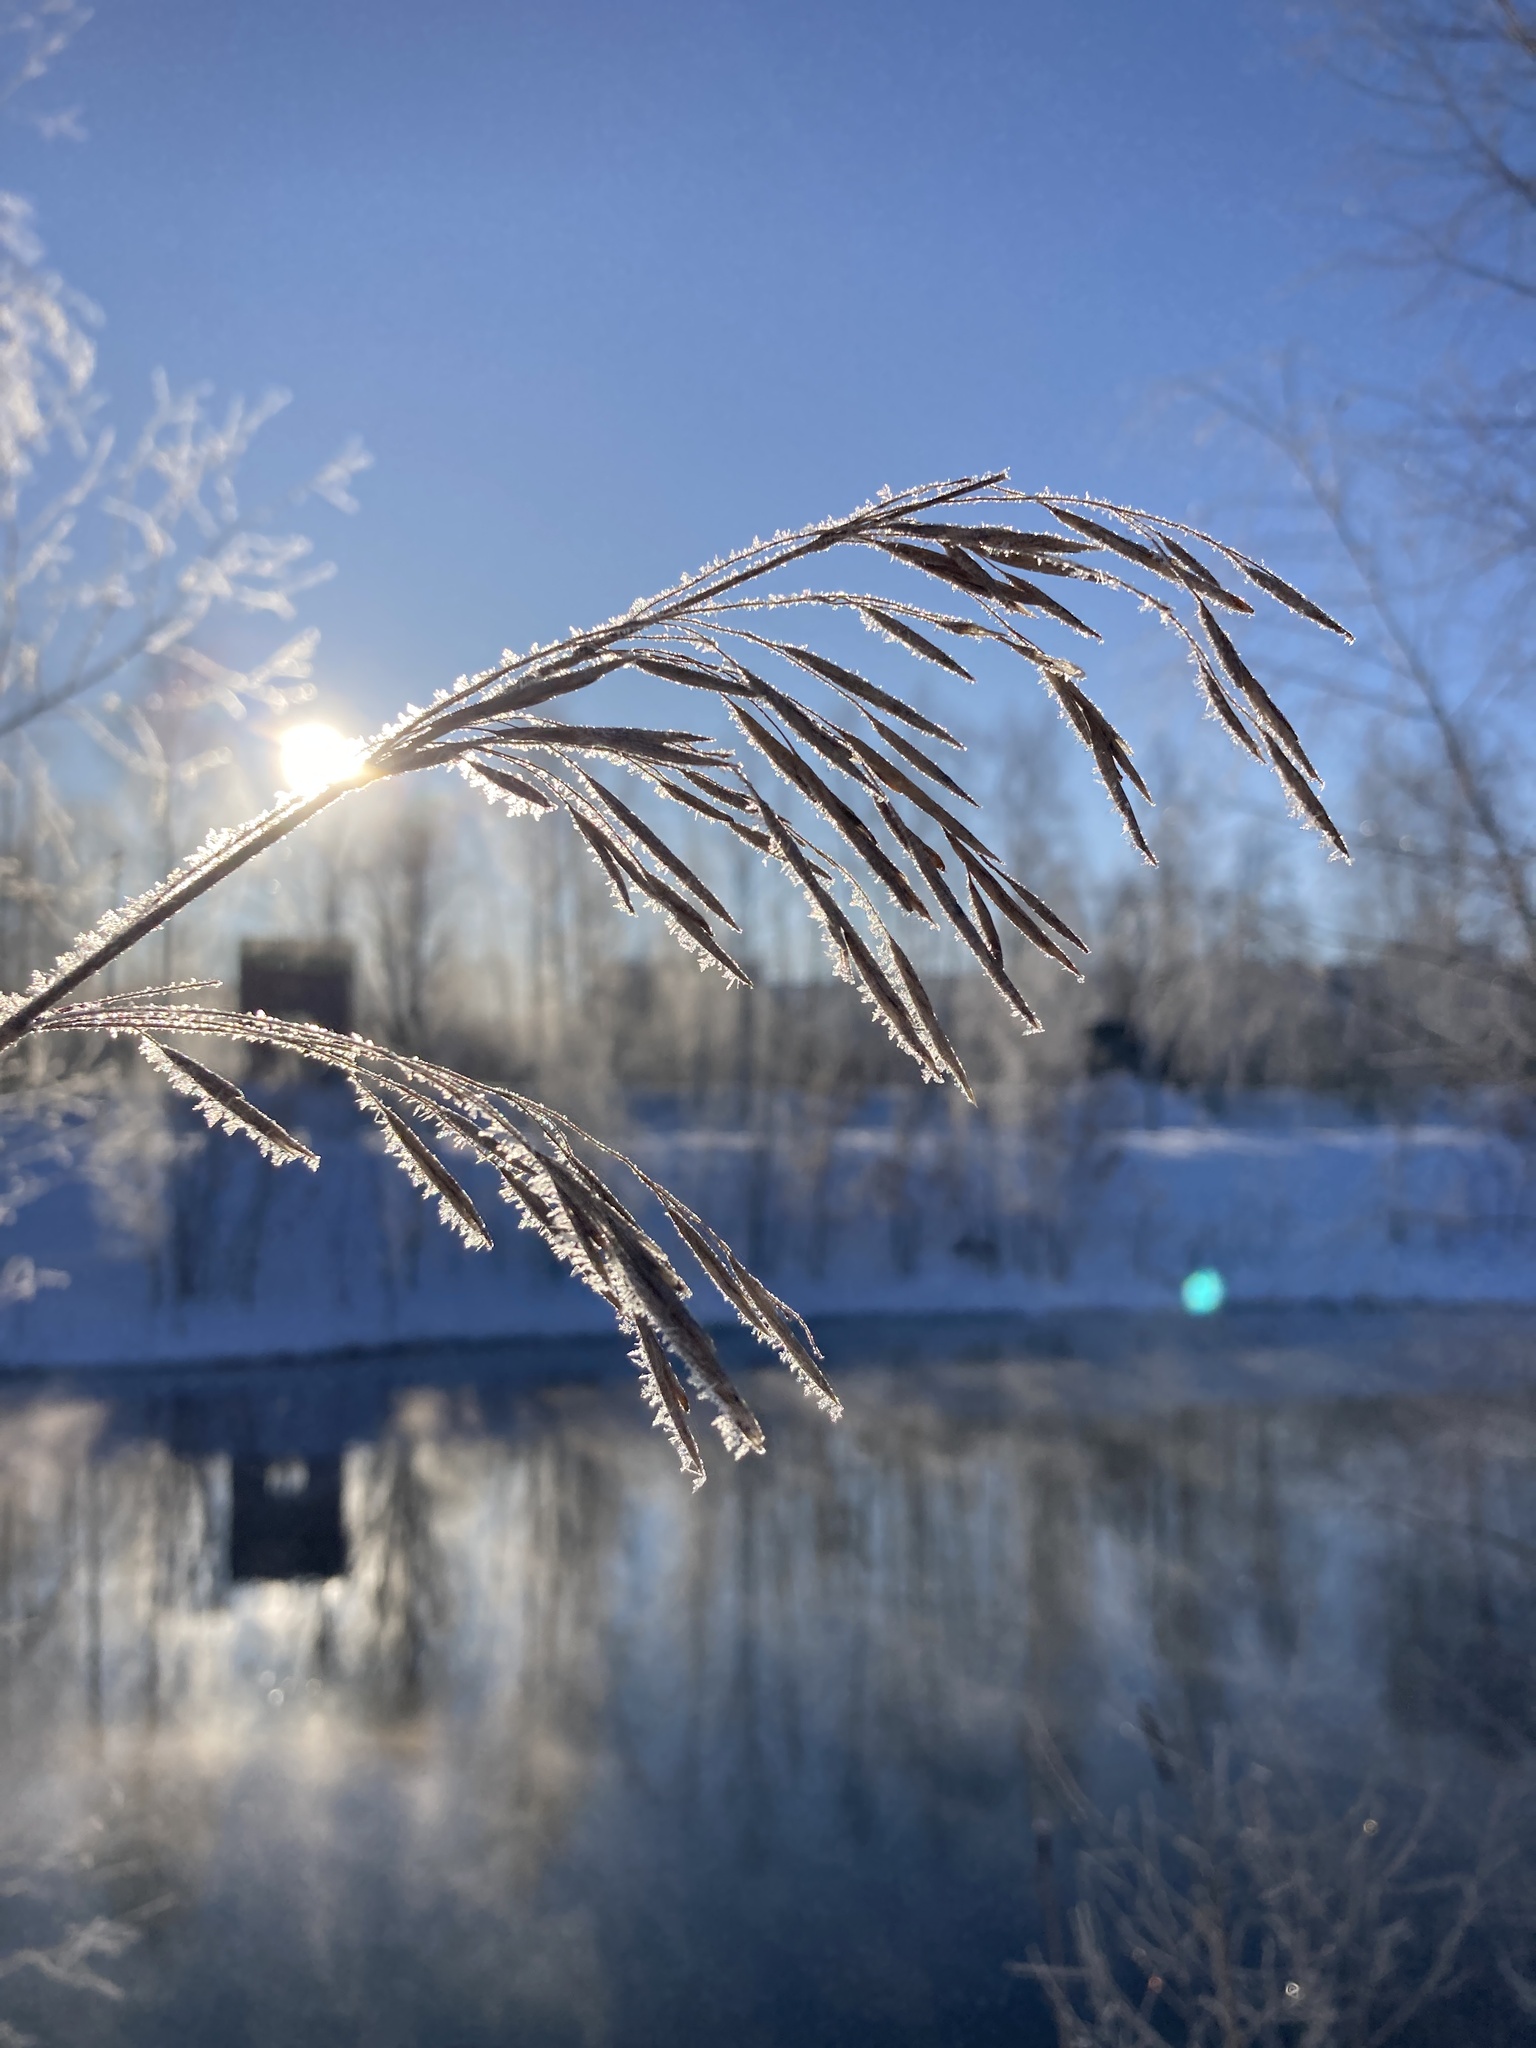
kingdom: Plantae
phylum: Tracheophyta
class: Liliopsida
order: Poales
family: Poaceae
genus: Bromus
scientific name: Bromus inermis
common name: Smooth brome
